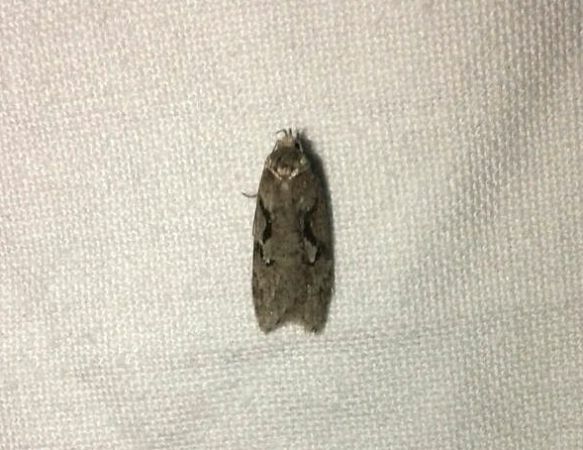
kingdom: Animalia
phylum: Arthropoda
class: Insecta
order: Lepidoptera
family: Depressariidae
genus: Semioscopis
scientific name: Semioscopis steinkellneriana
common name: Dawn flat-body
